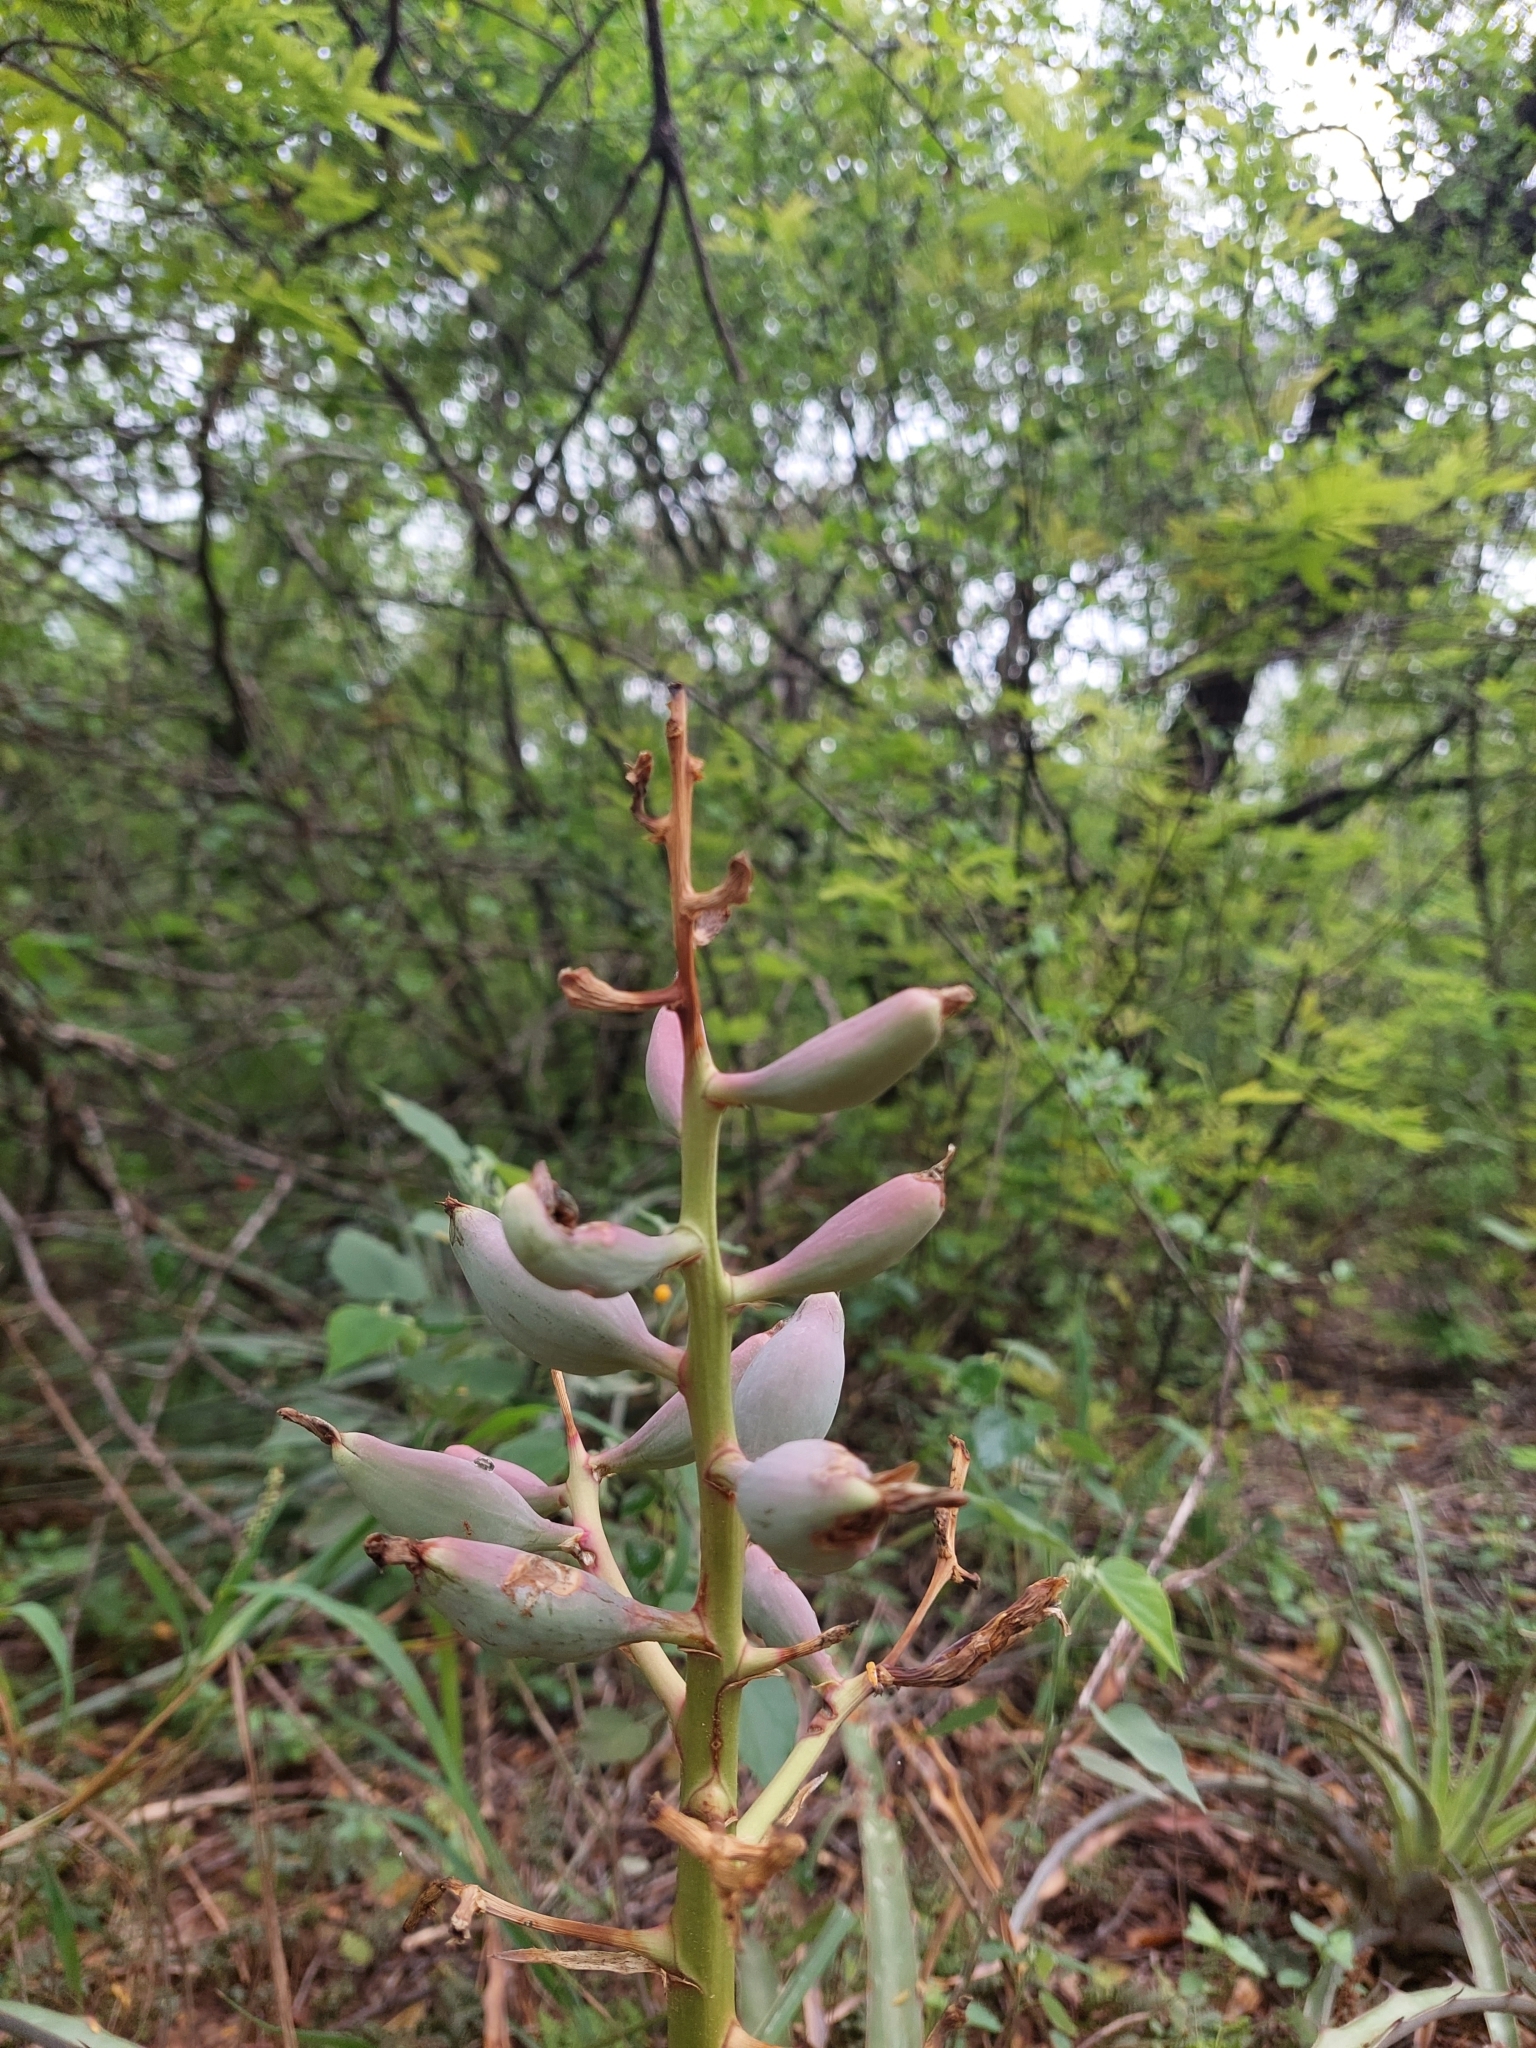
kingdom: Plantae
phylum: Tracheophyta
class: Liliopsida
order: Poales
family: Bromeliaceae
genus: Bromelia
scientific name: Bromelia hieronymi
